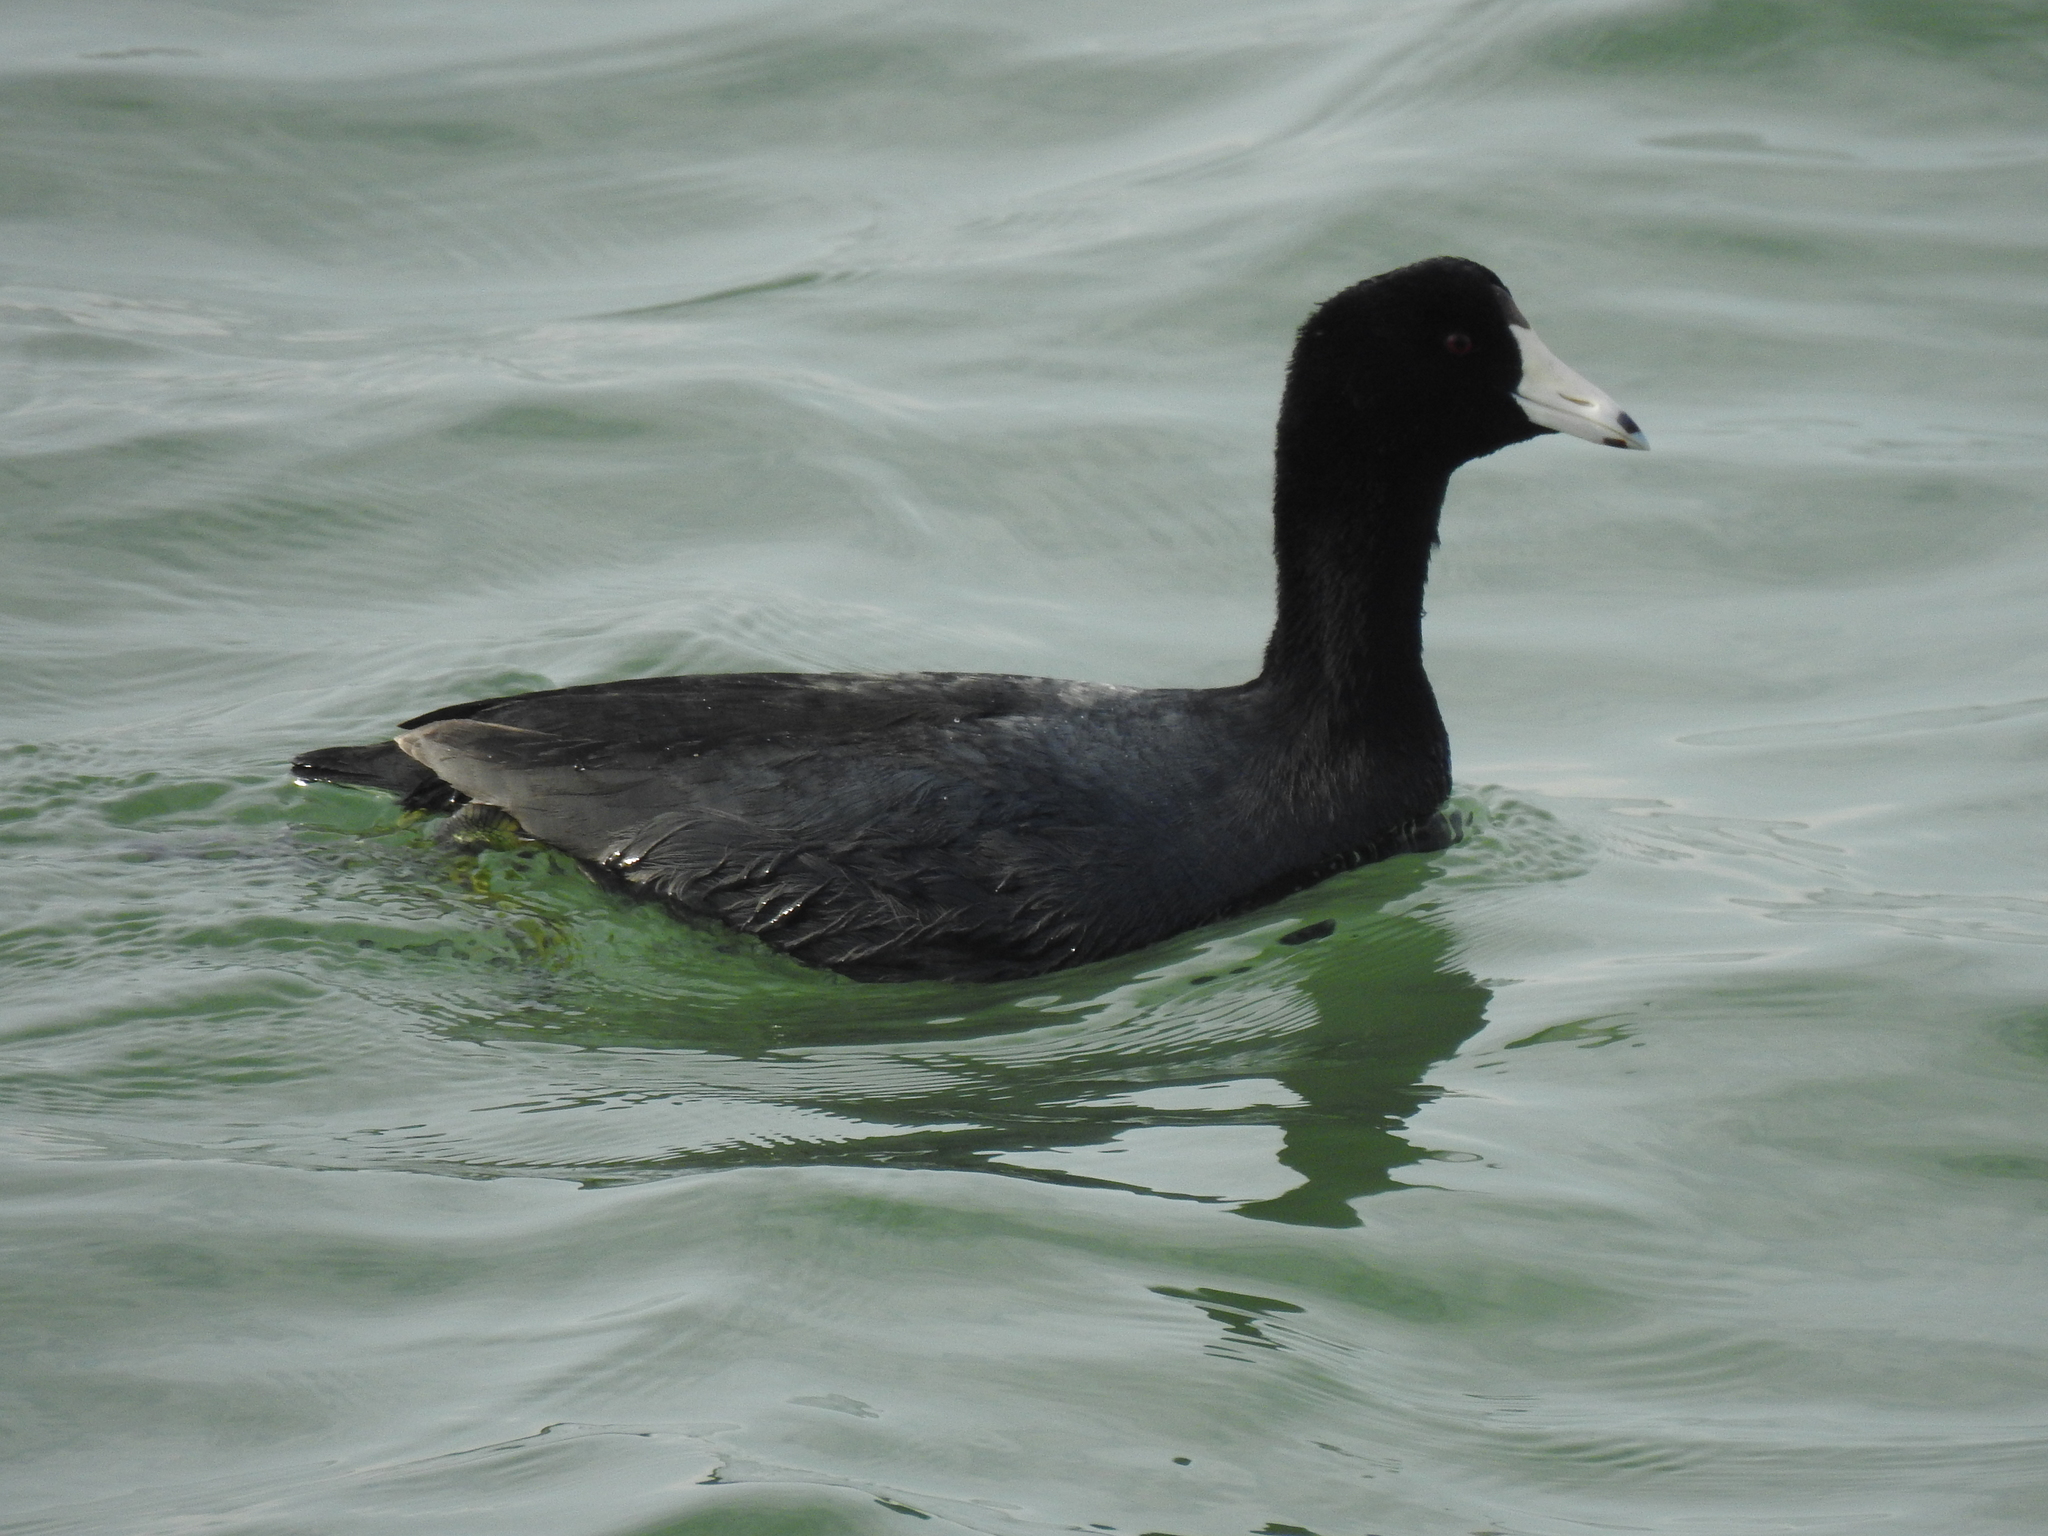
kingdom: Animalia
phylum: Chordata
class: Aves
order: Gruiformes
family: Rallidae
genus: Fulica
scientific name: Fulica americana
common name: American coot
